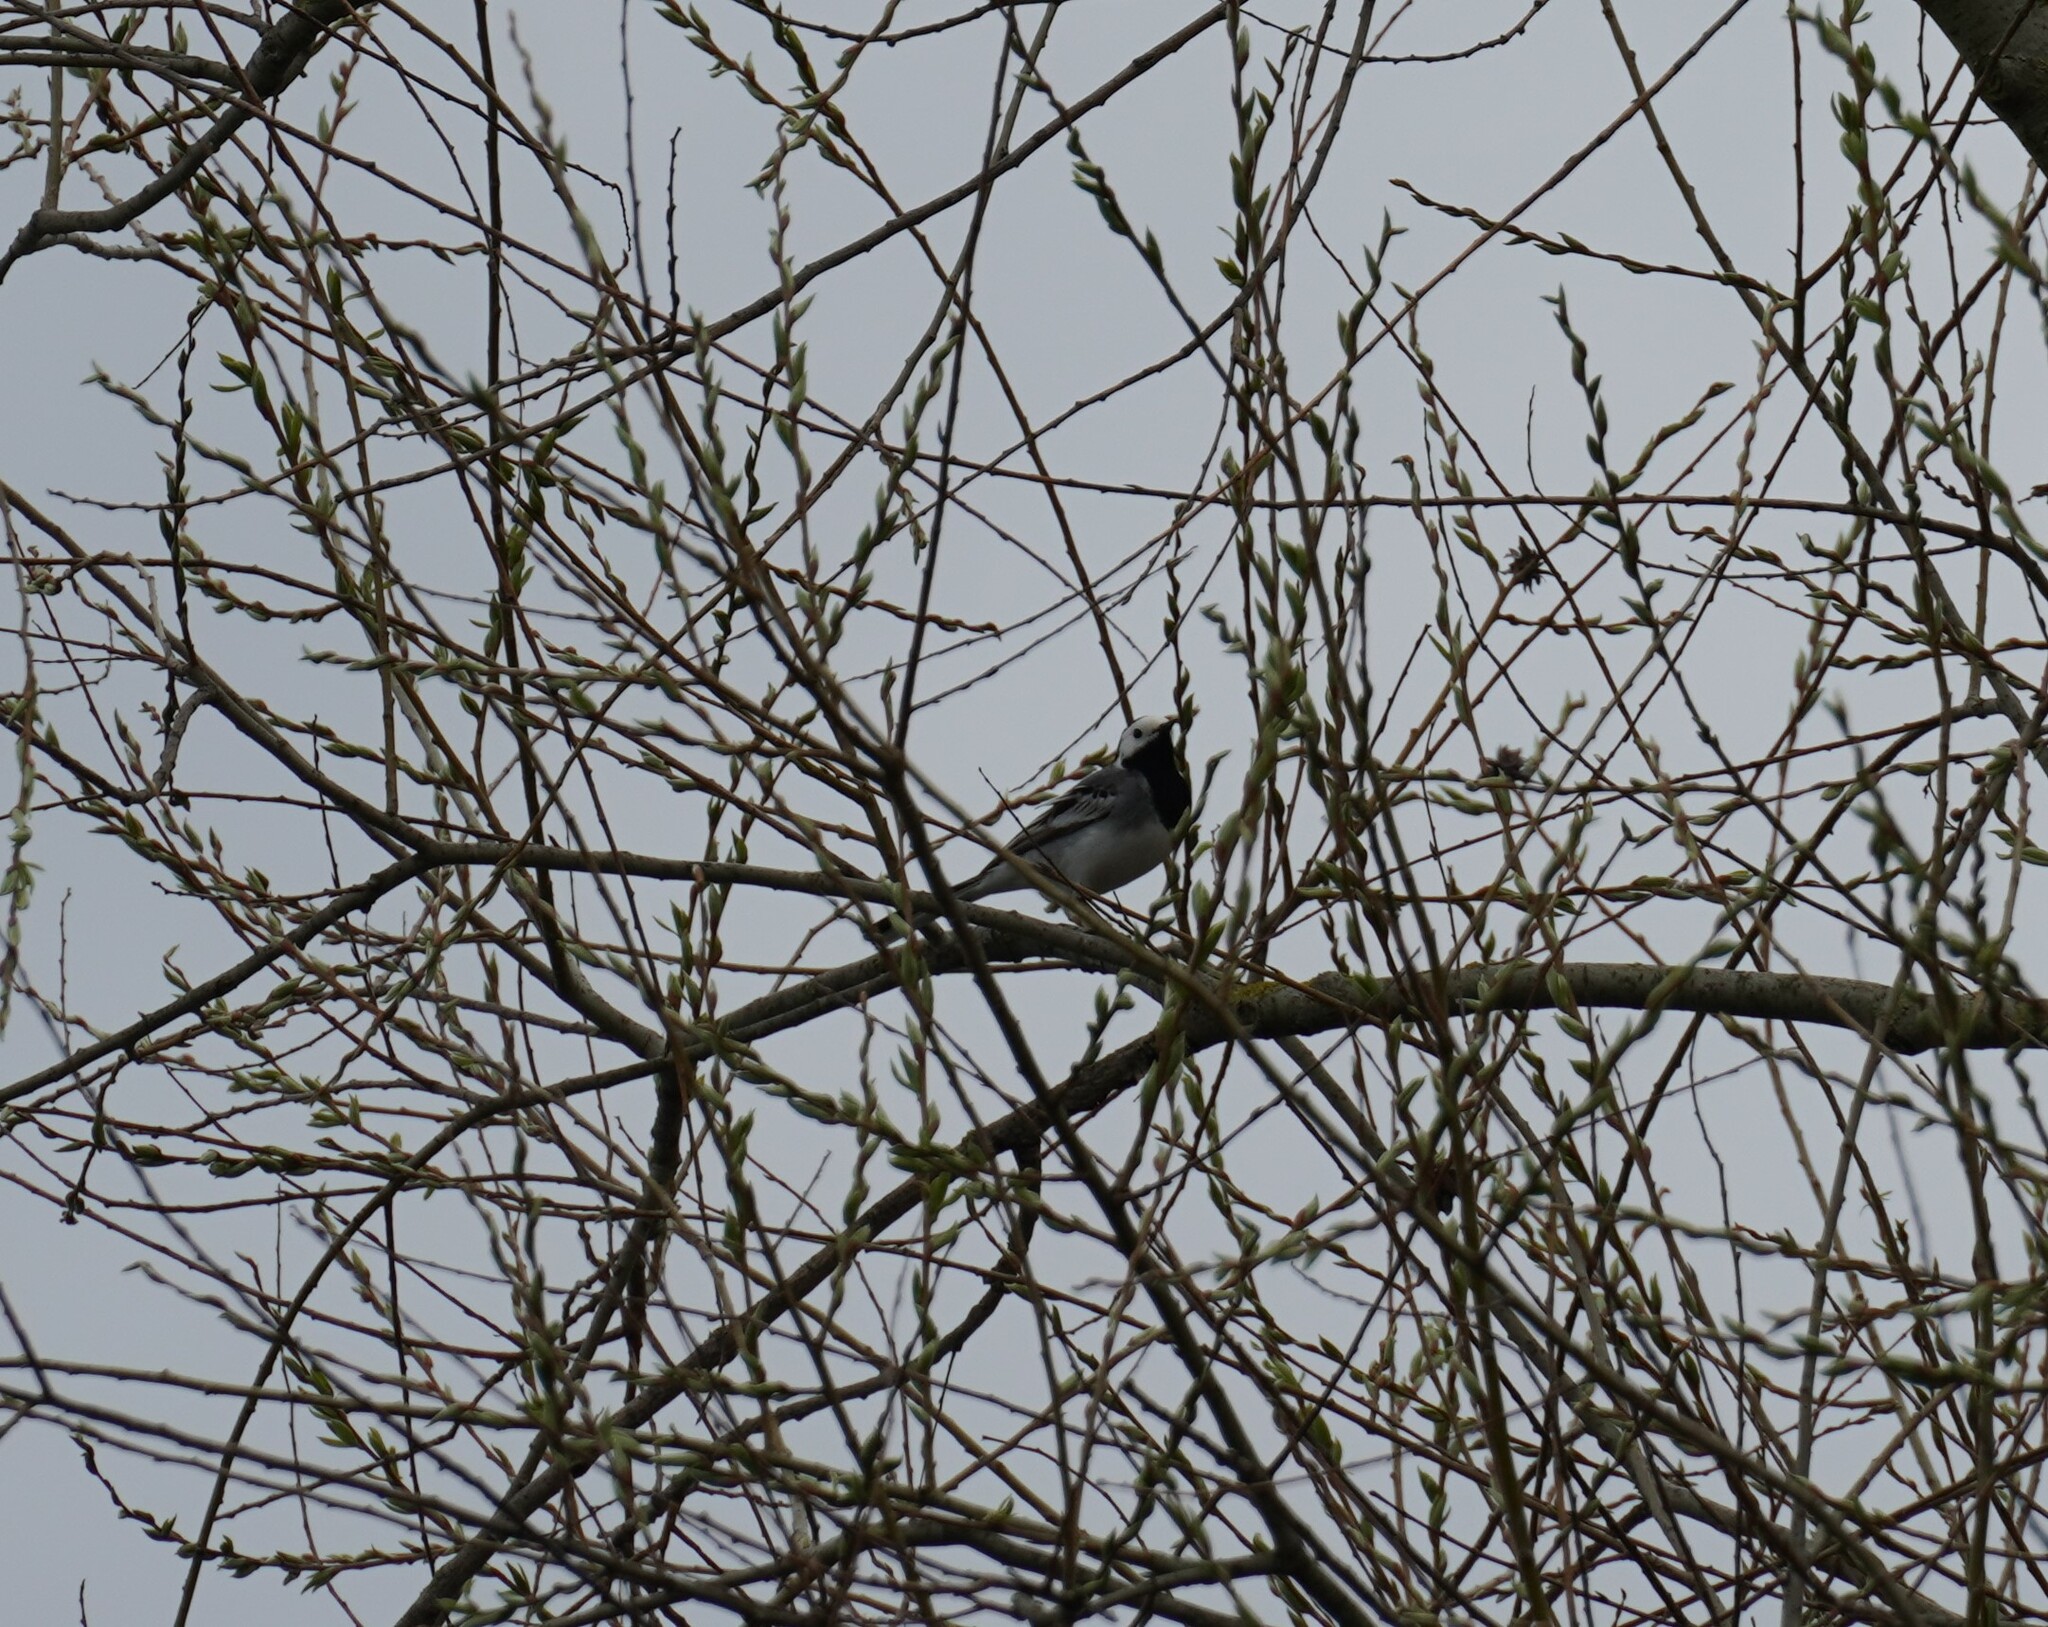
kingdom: Animalia
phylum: Chordata
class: Aves
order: Passeriformes
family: Motacillidae
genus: Motacilla
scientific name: Motacilla alba
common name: White wagtail
